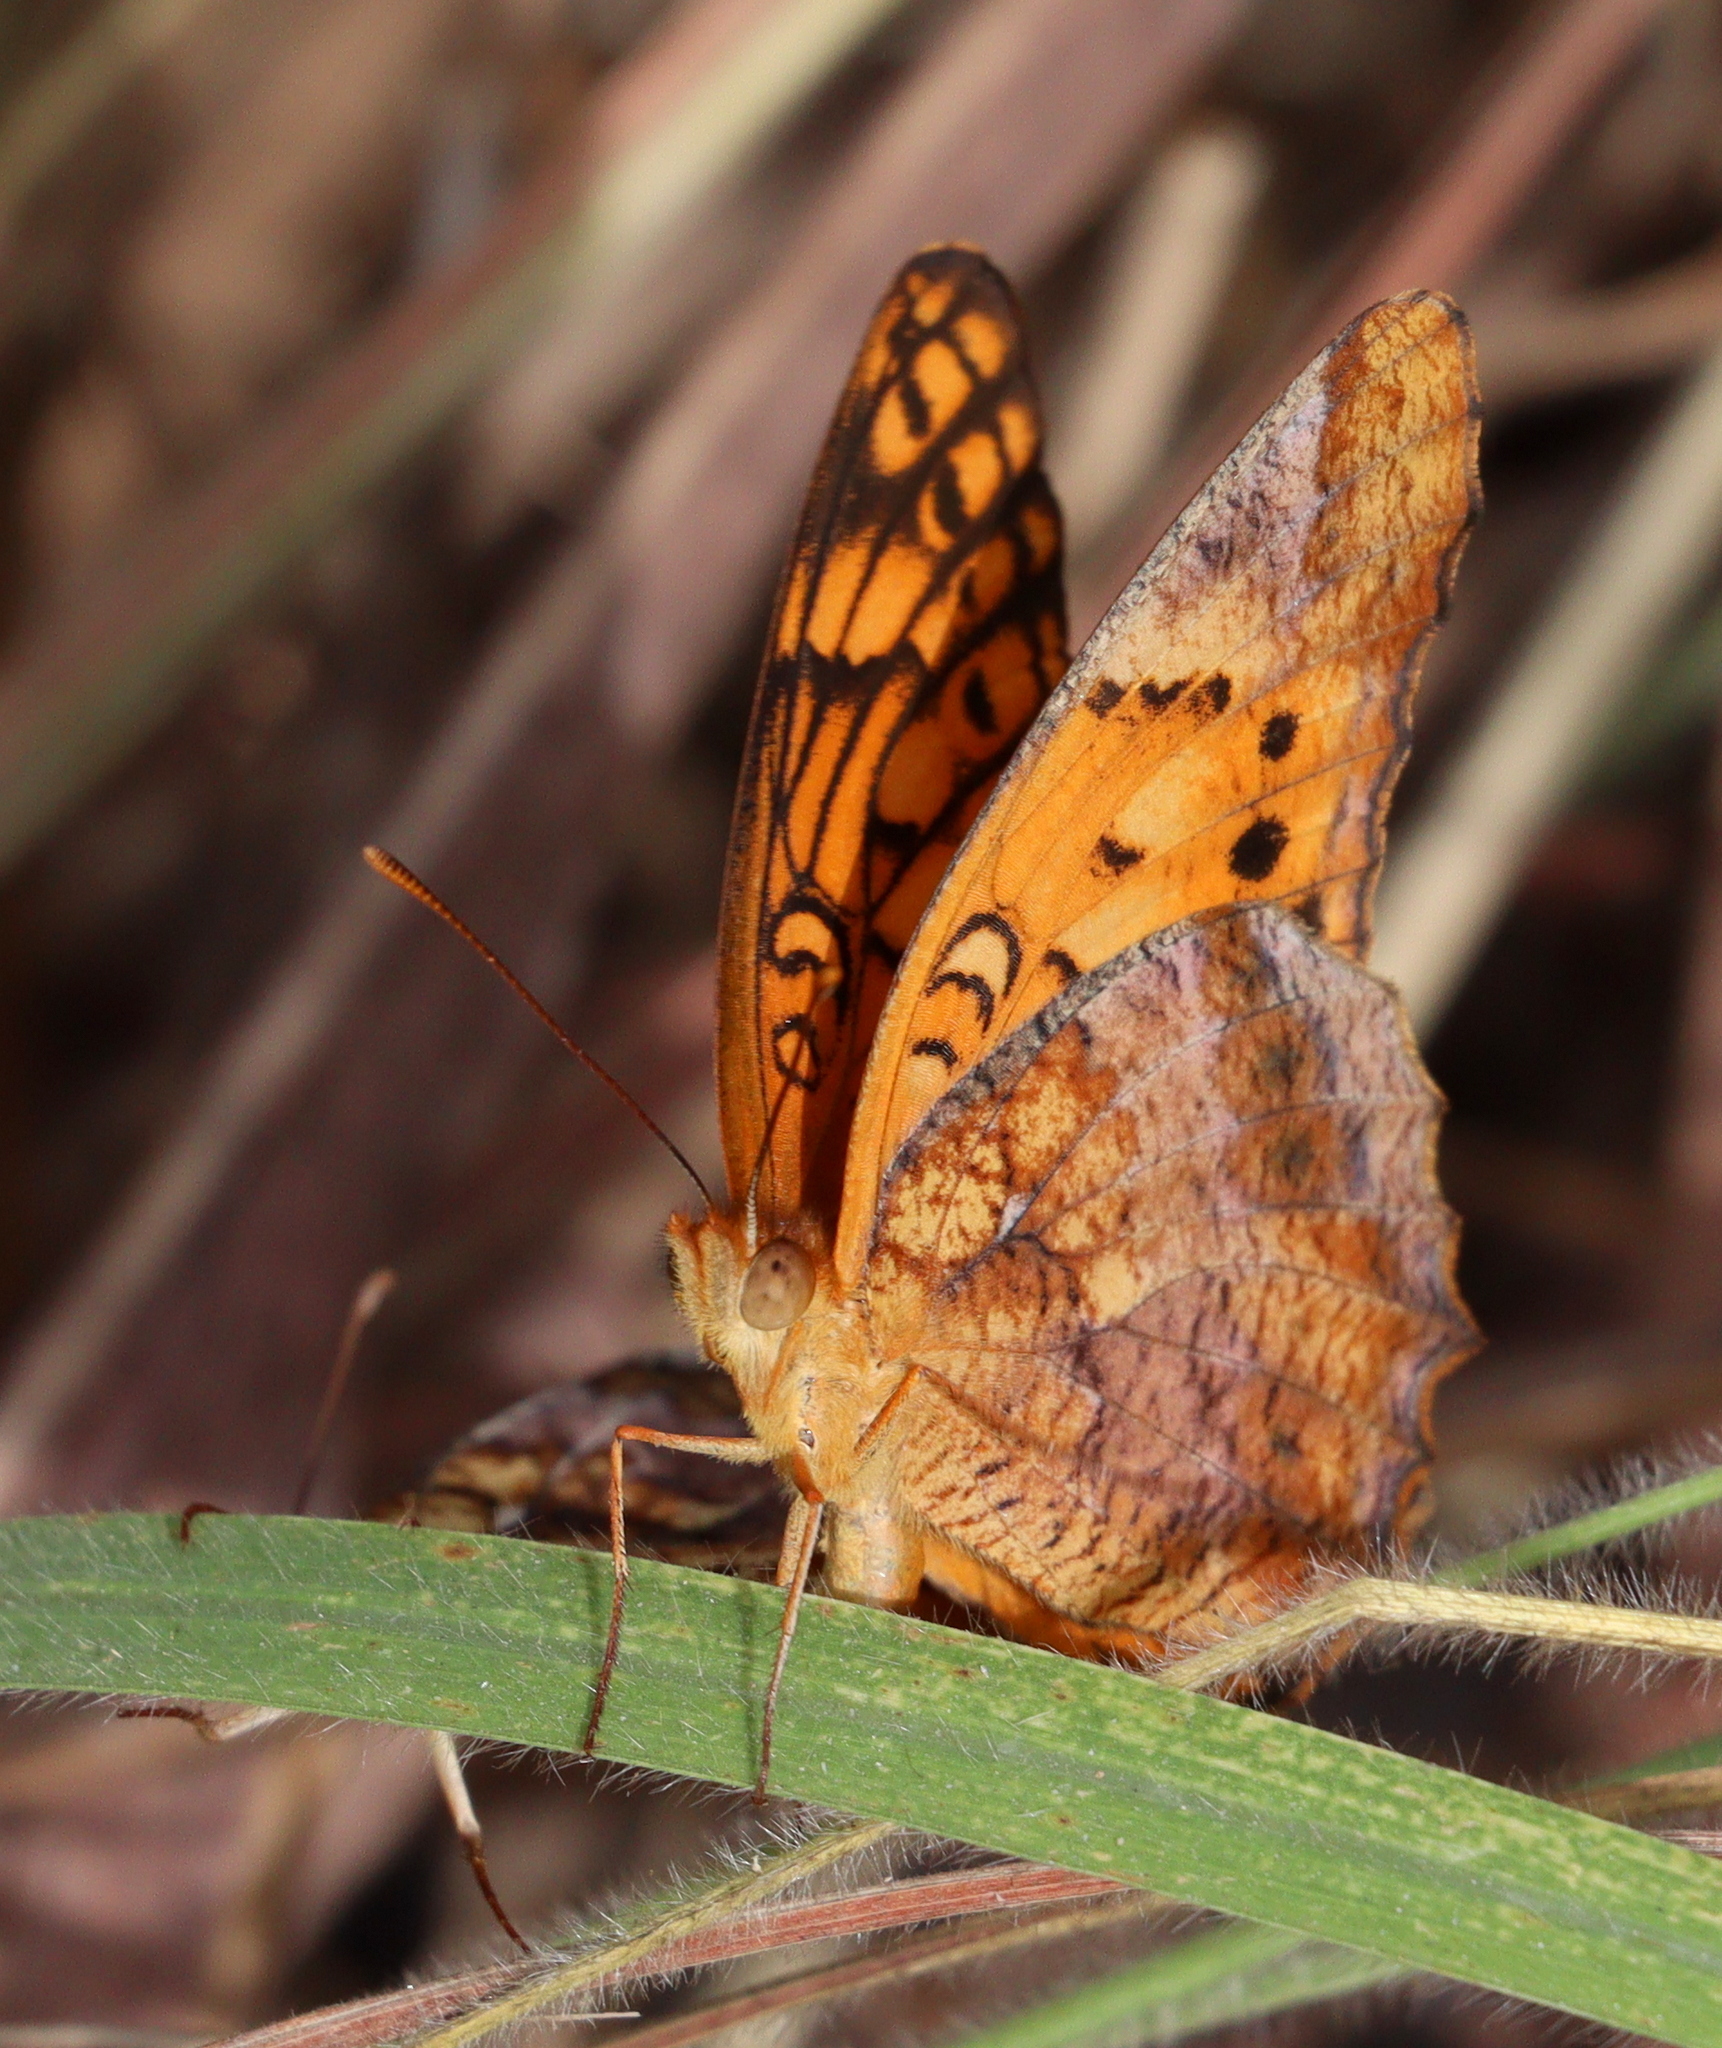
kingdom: Animalia
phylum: Arthropoda
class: Insecta
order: Lepidoptera
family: Nymphalidae
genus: Euptoieta
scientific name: Euptoieta hegesia
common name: Mexican fritillary
